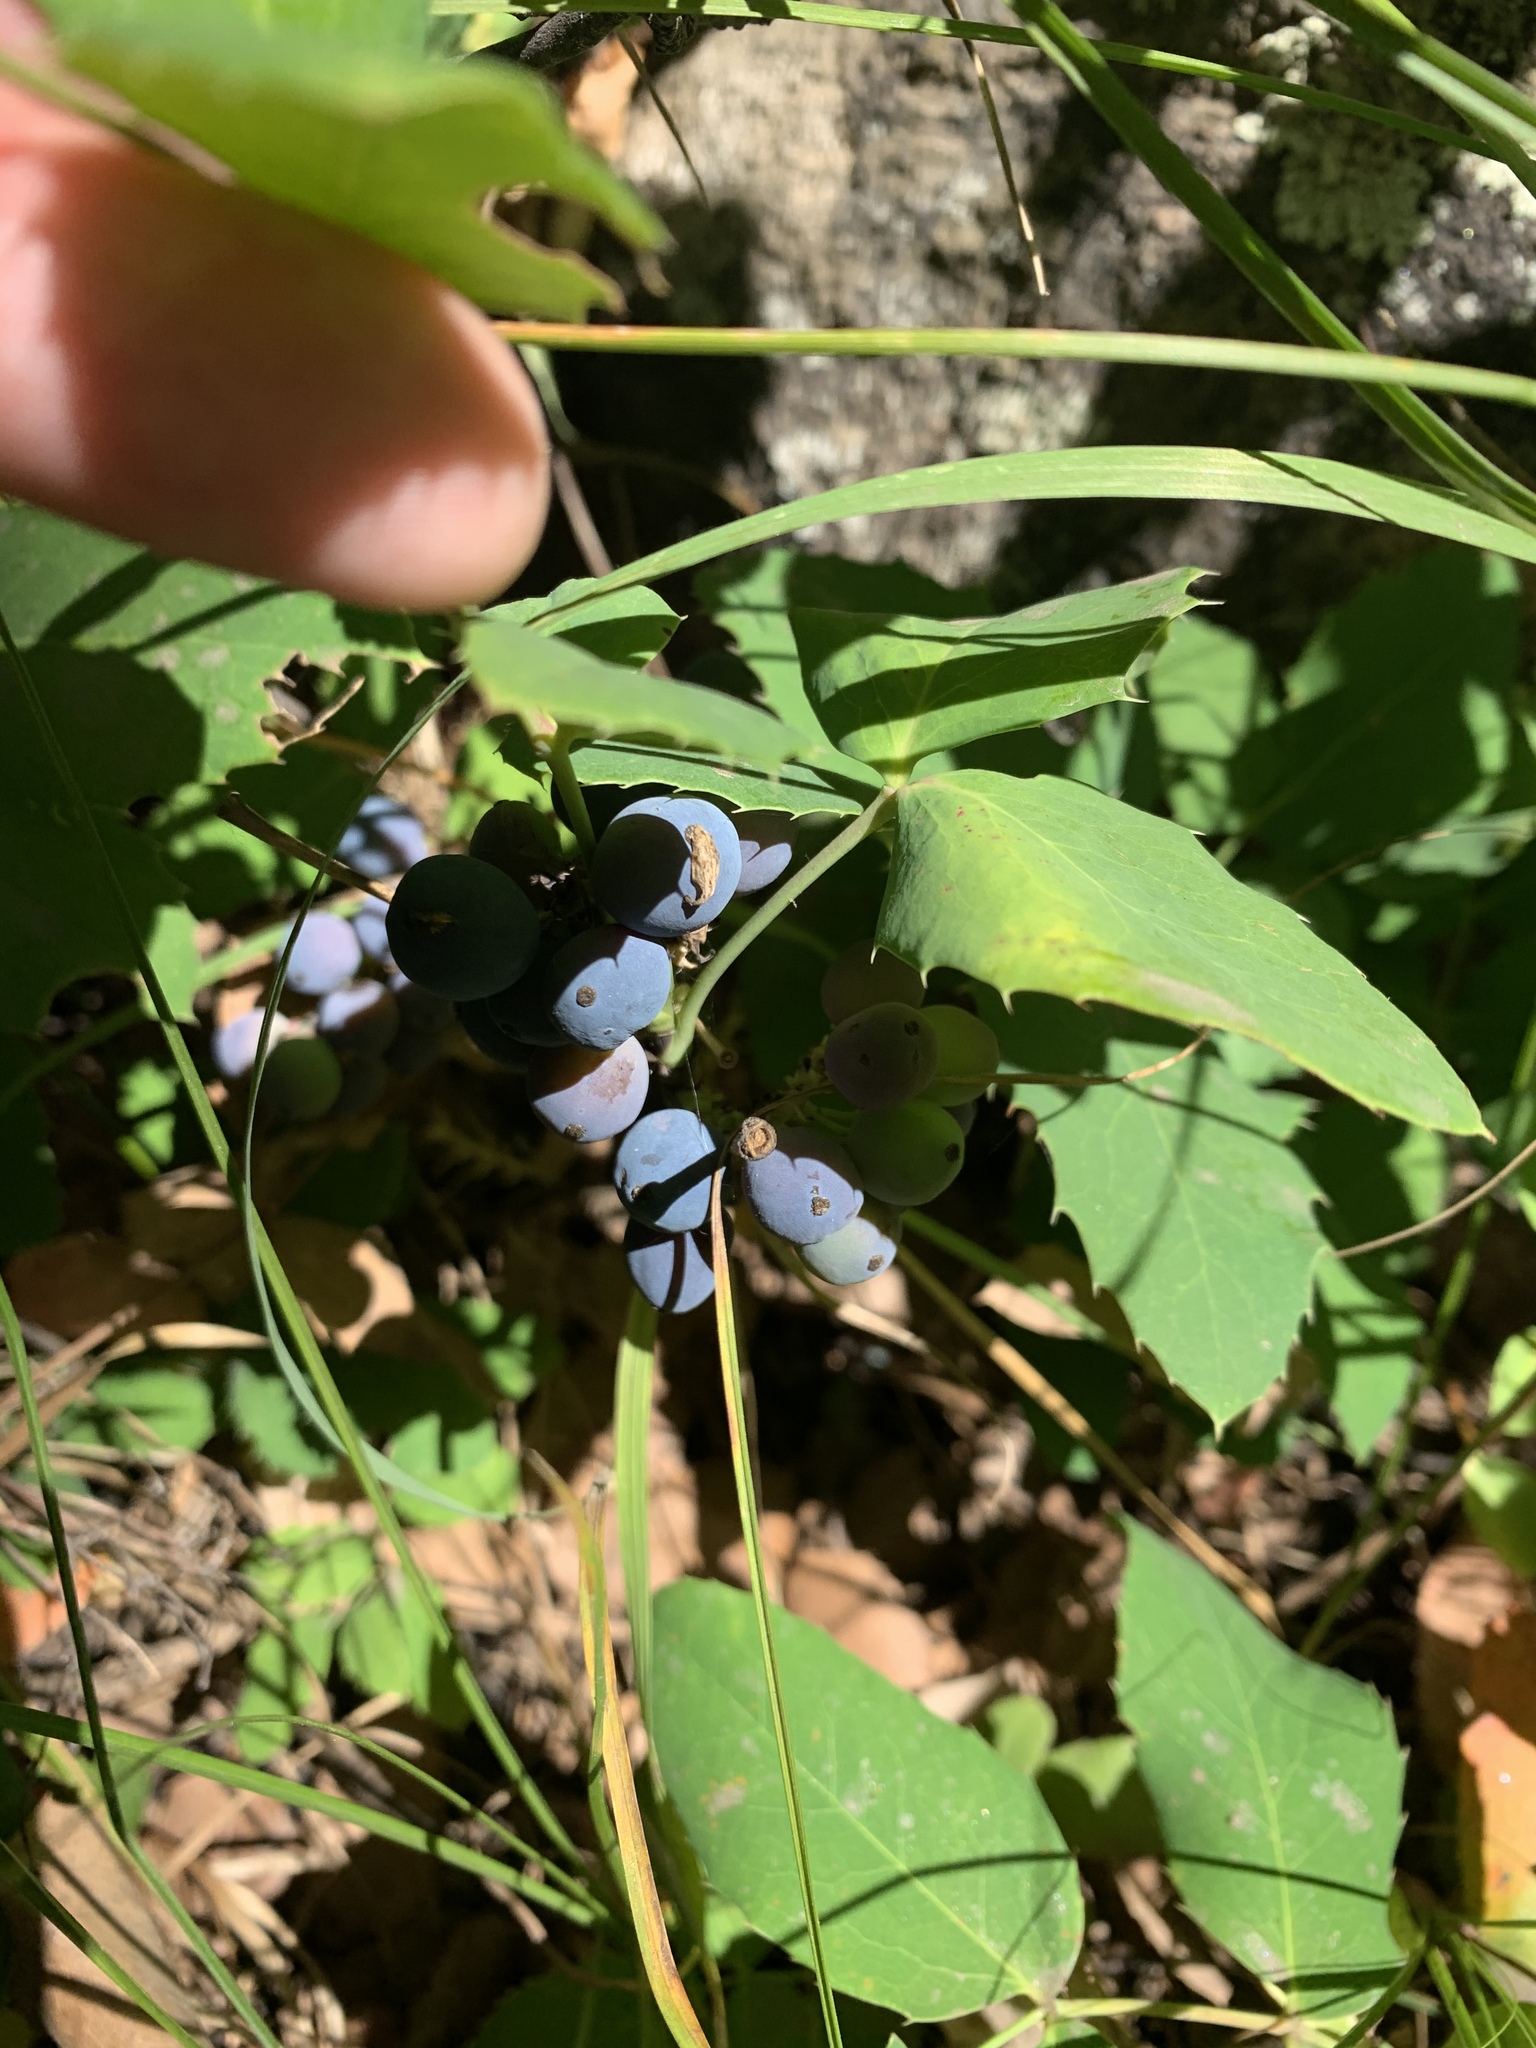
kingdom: Plantae
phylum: Tracheophyta
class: Magnoliopsida
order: Ranunculales
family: Berberidaceae
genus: Mahonia
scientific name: Mahonia repens
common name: Creeping oregon-grape
